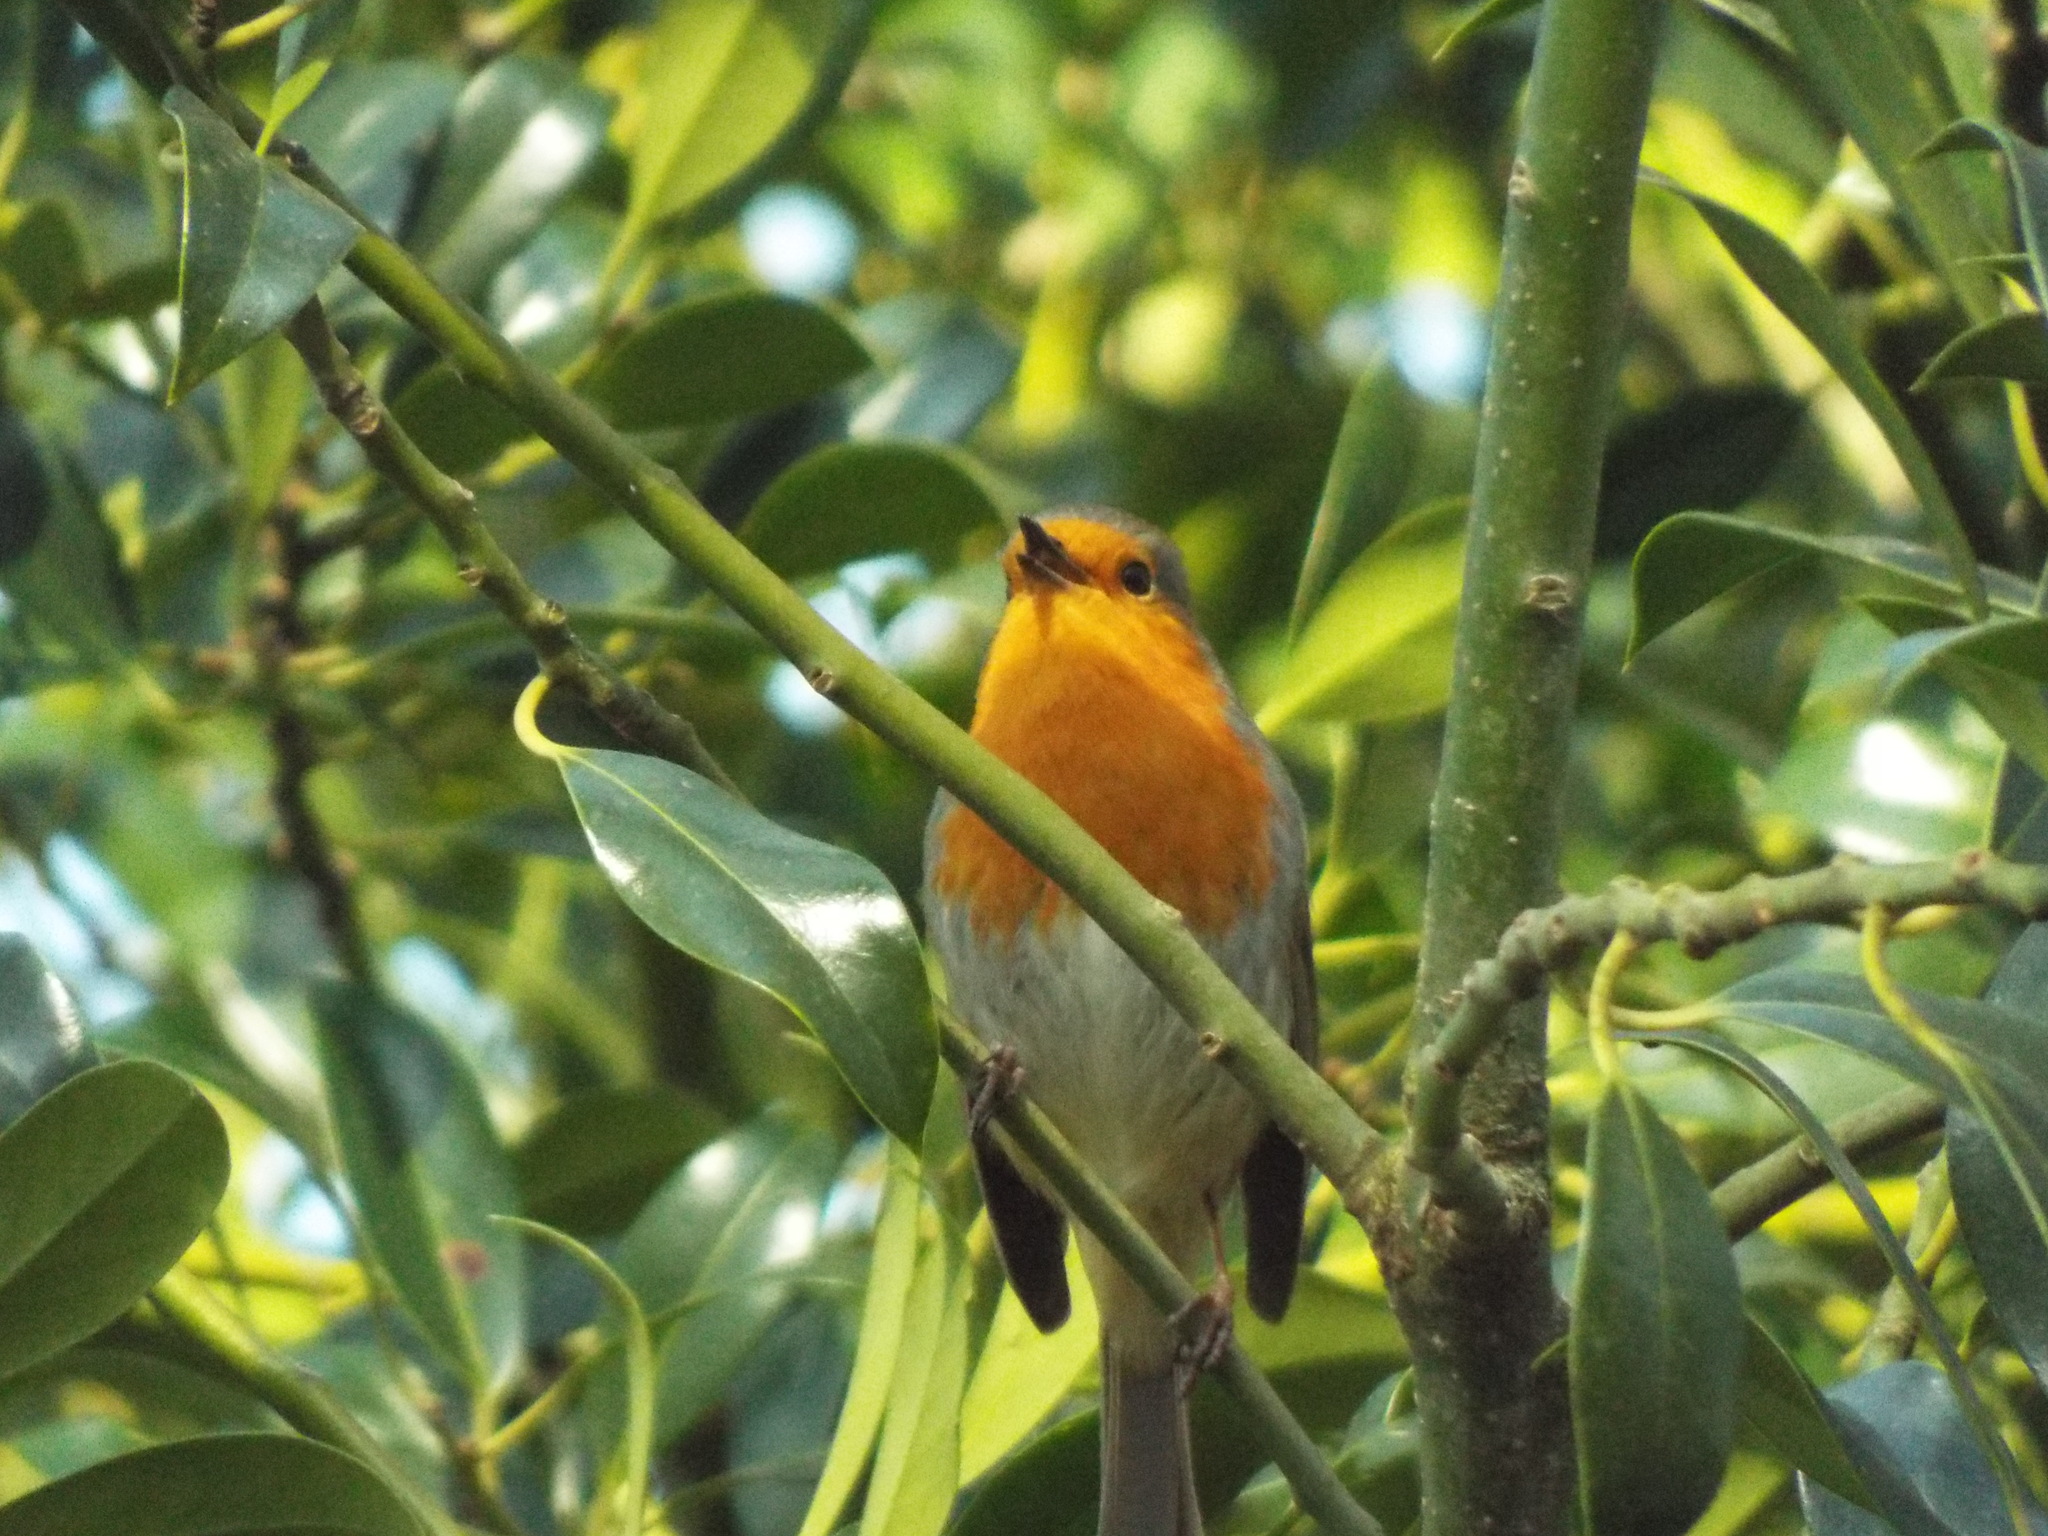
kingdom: Animalia
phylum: Chordata
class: Aves
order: Passeriformes
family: Muscicapidae
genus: Erithacus
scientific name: Erithacus rubecula
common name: European robin
